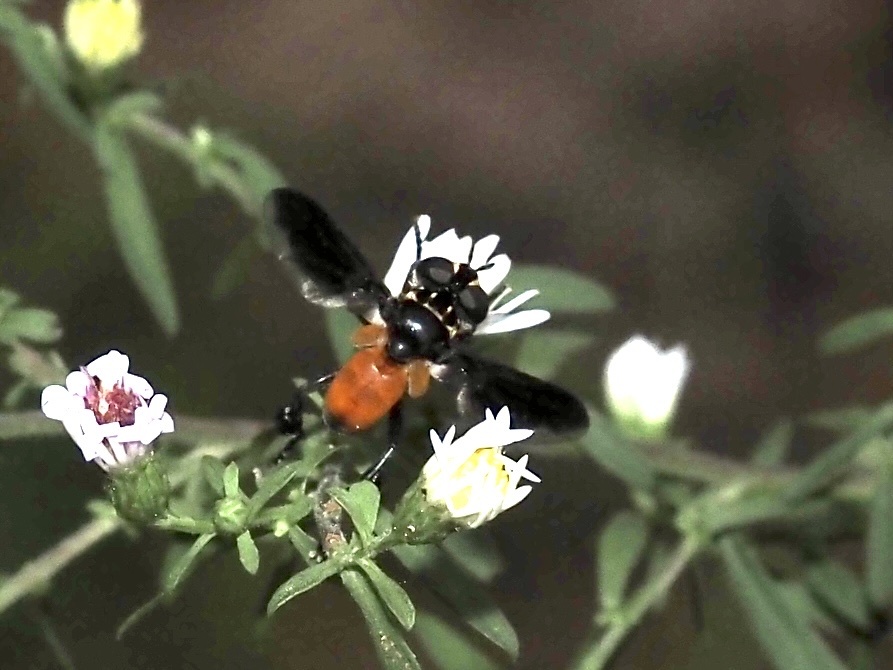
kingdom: Animalia
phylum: Arthropoda
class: Insecta
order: Diptera
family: Tachinidae
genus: Trichopoda
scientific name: Trichopoda pennipes
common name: Tachinid fly
